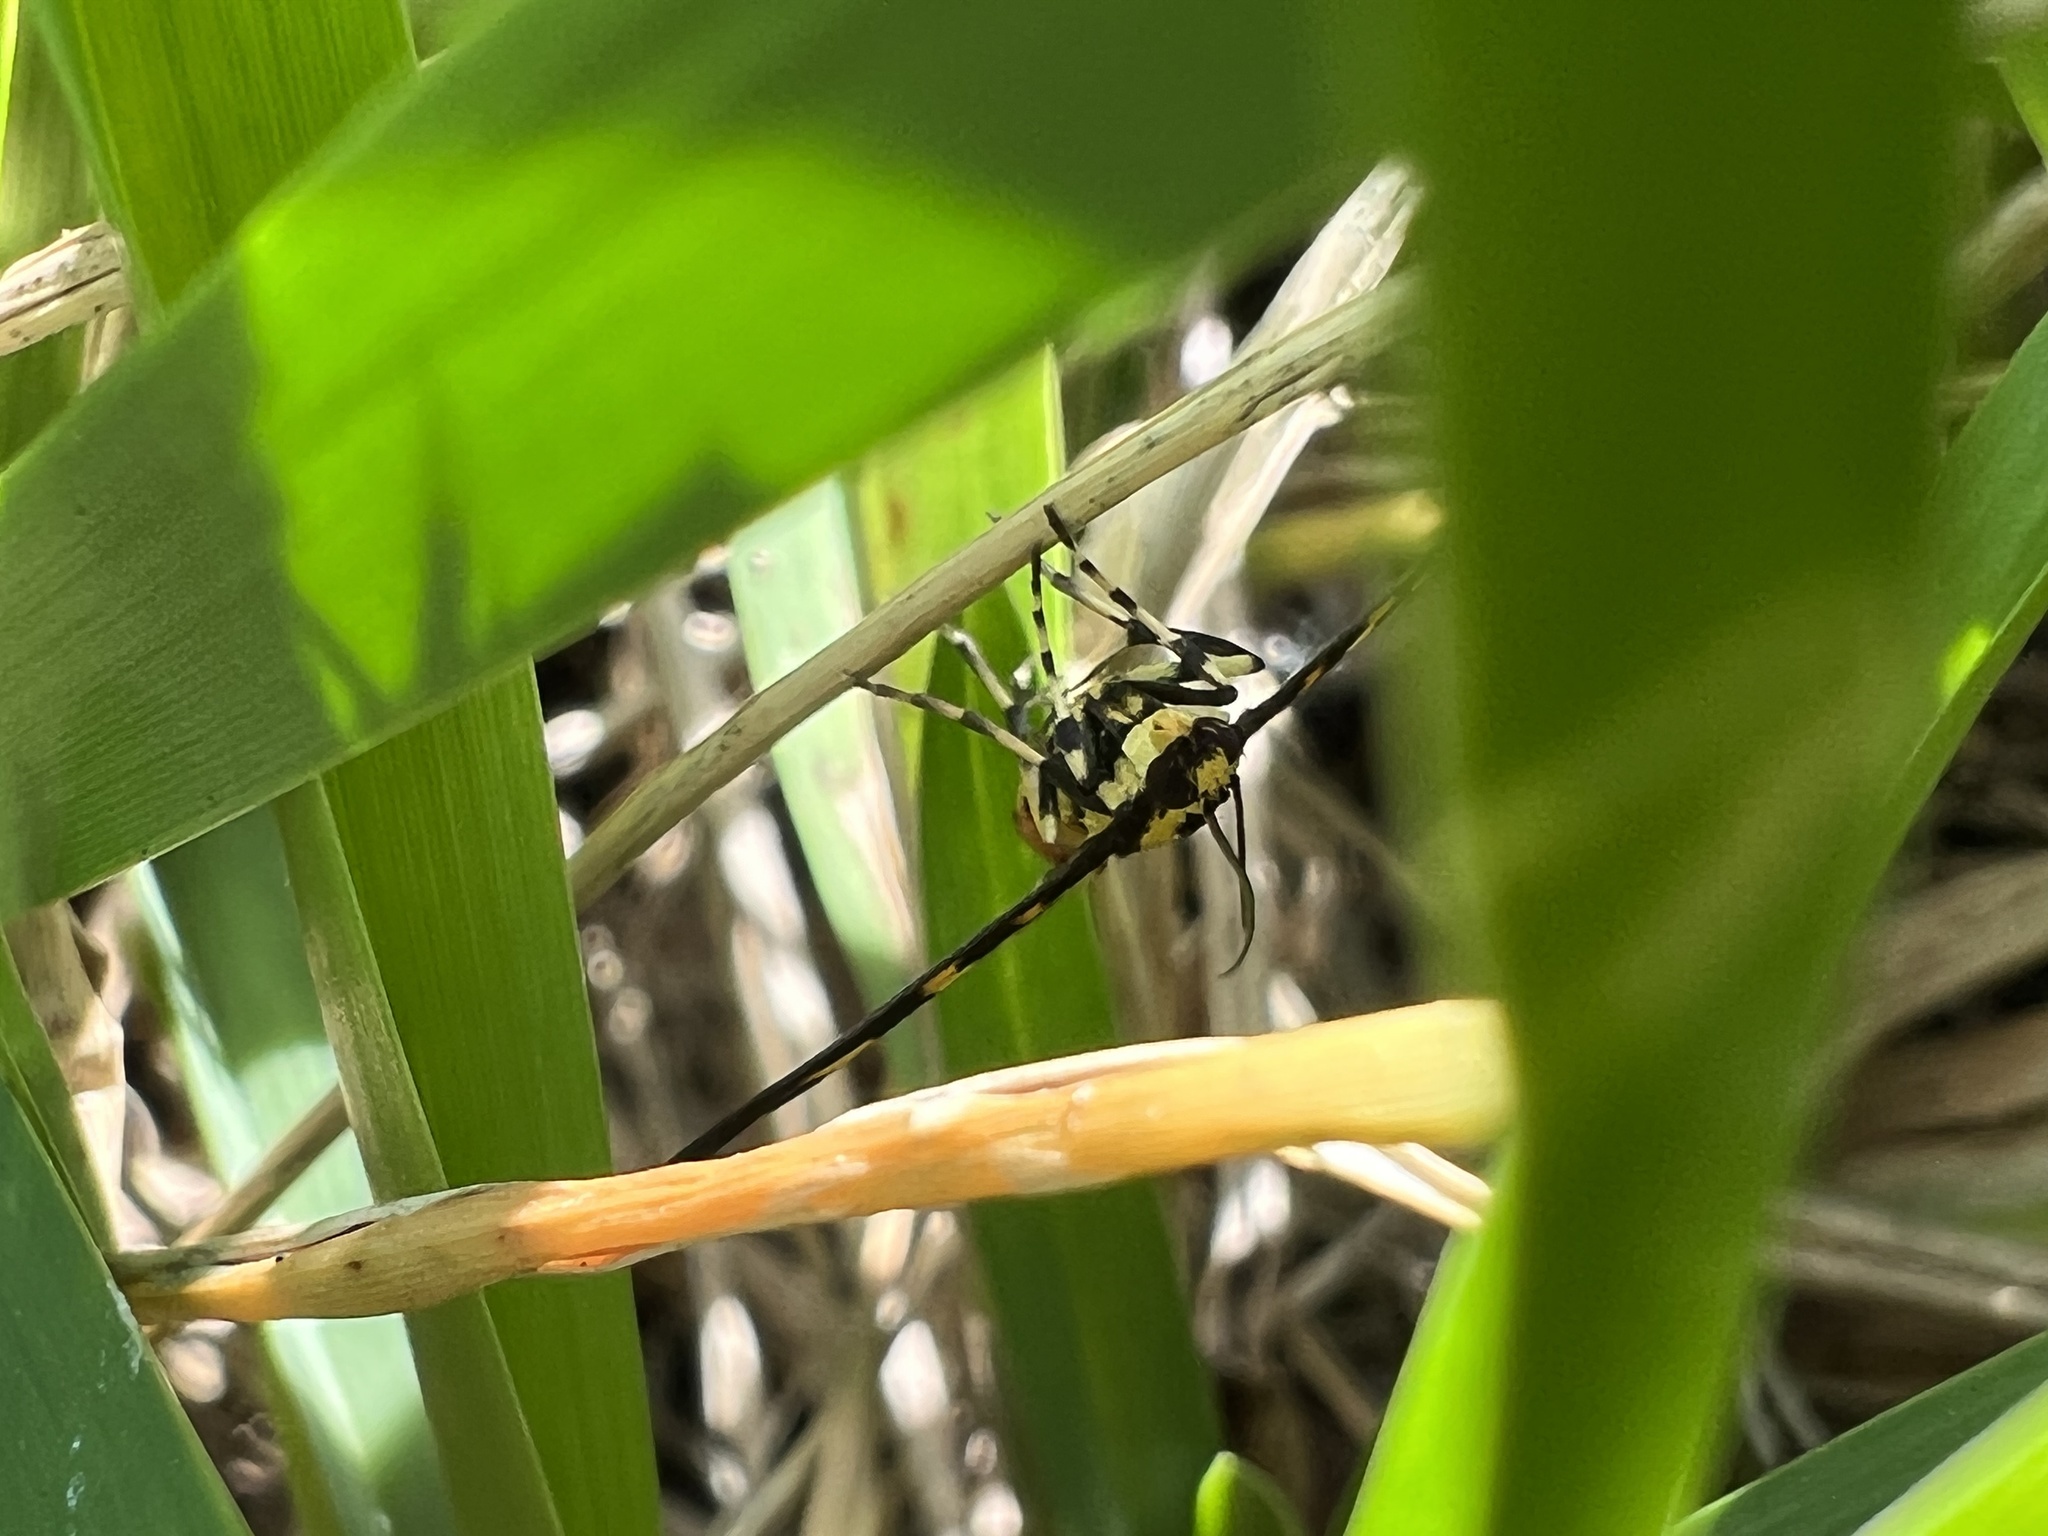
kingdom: Animalia
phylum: Arthropoda
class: Insecta
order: Lepidoptera
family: Crambidae
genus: Syngamia
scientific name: Syngamia florella
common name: Orange-spotted flower moth
